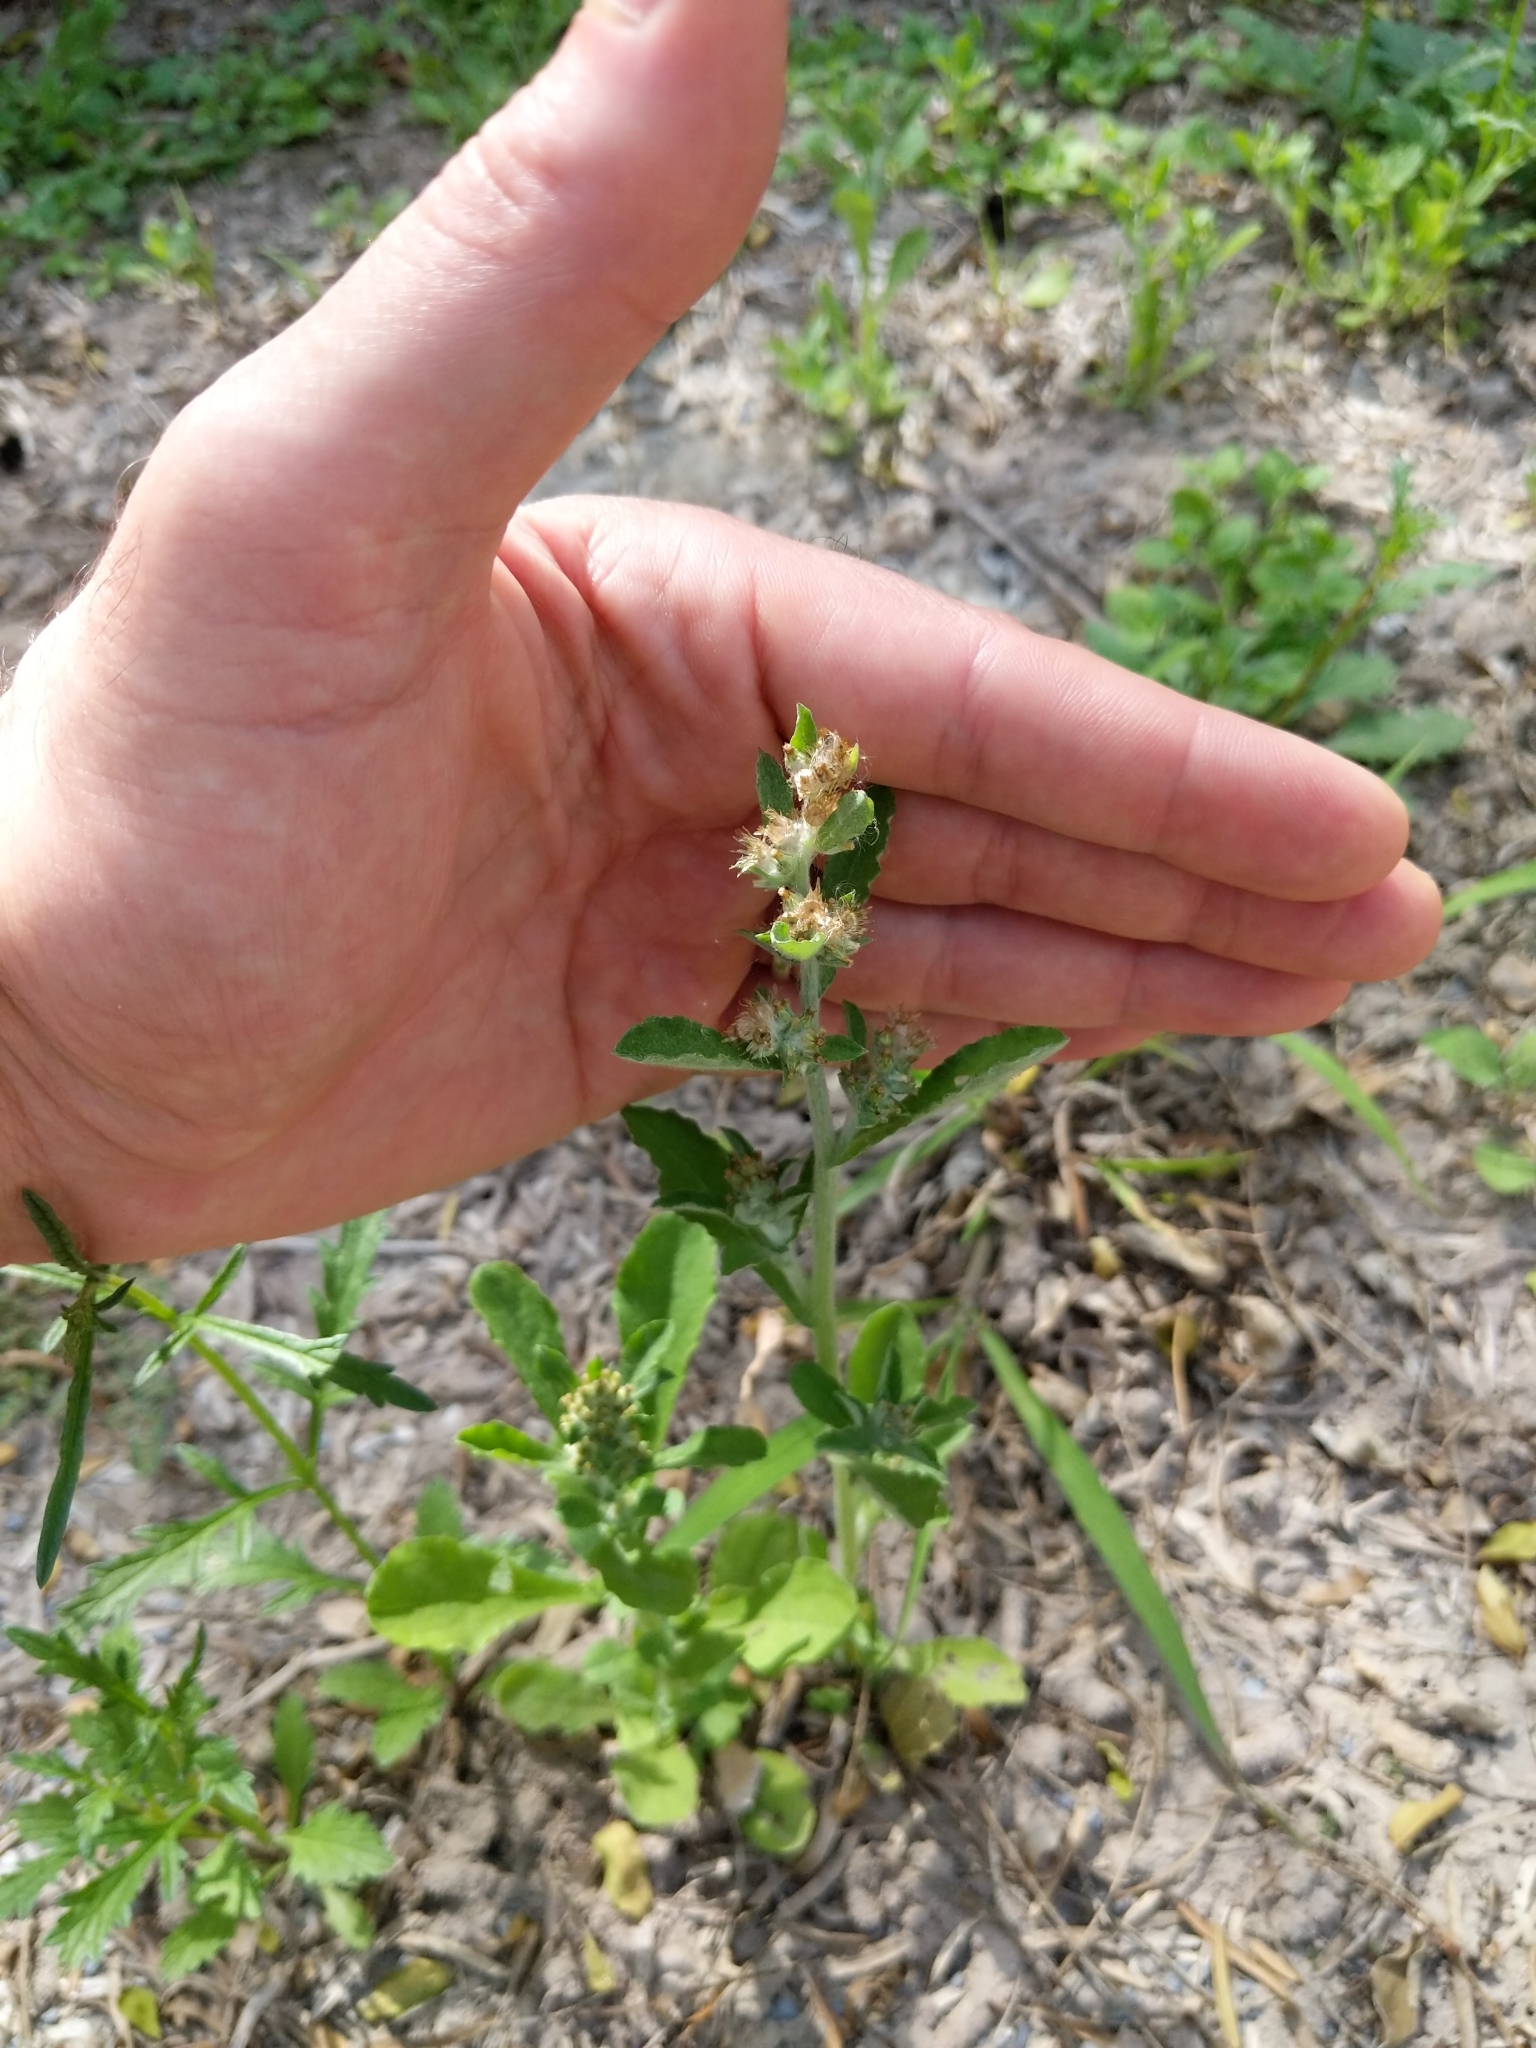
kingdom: Plantae
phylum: Tracheophyta
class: Magnoliopsida
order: Asterales
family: Asteraceae
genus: Gamochaeta
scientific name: Gamochaeta pensylvanica
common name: Pennsylvania everlasting
